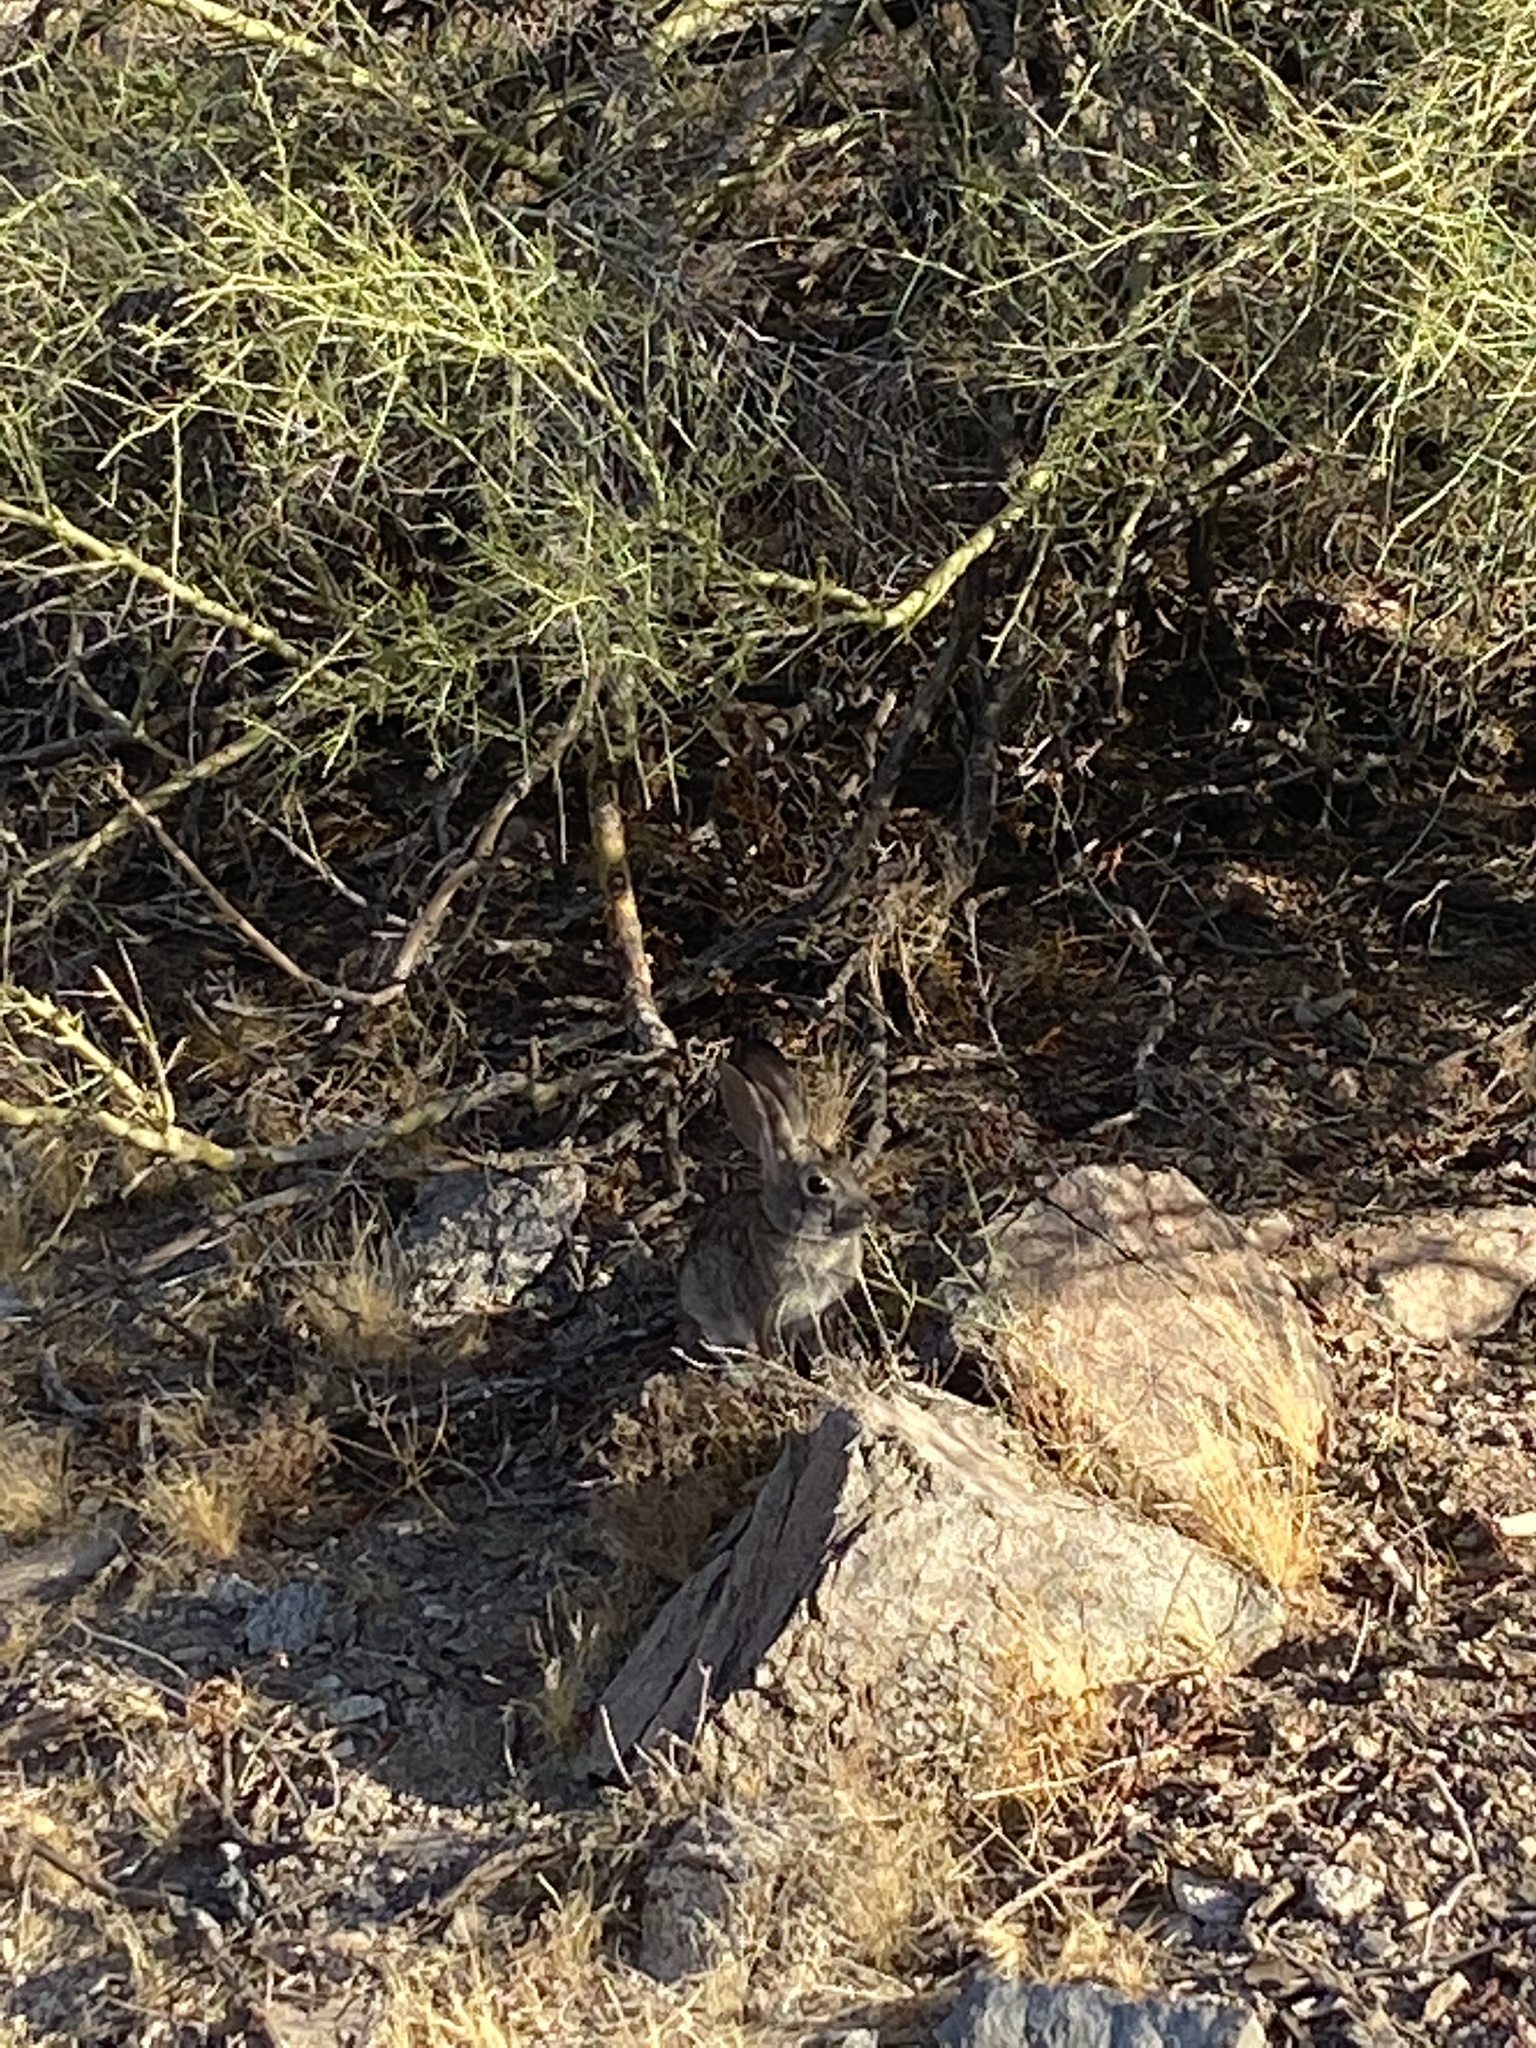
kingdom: Animalia
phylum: Chordata
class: Mammalia
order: Lagomorpha
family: Leporidae
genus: Sylvilagus
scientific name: Sylvilagus audubonii
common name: Desert cottontail
